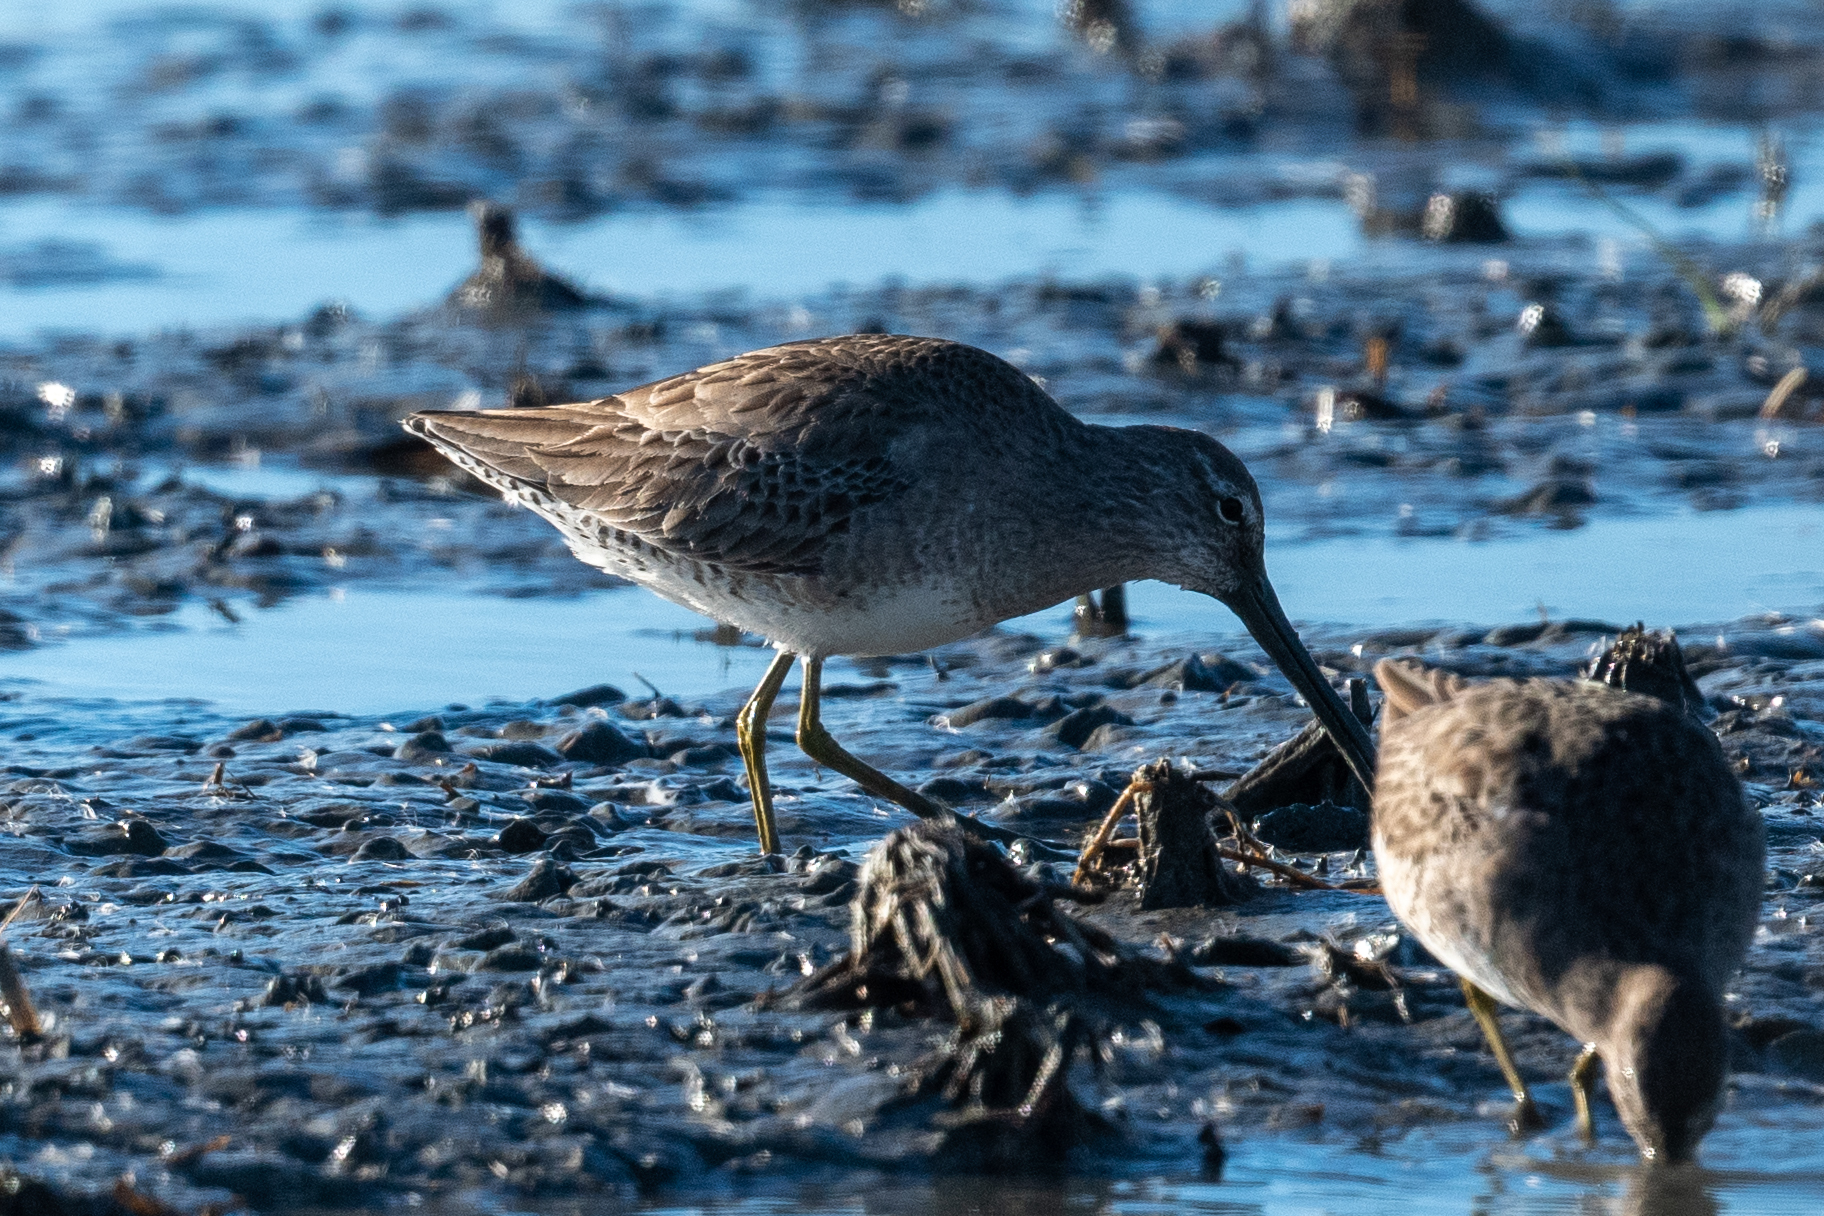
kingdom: Animalia
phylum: Chordata
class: Aves
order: Charadriiformes
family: Scolopacidae
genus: Limnodromus
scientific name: Limnodromus scolopaceus
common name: Long-billed dowitcher
